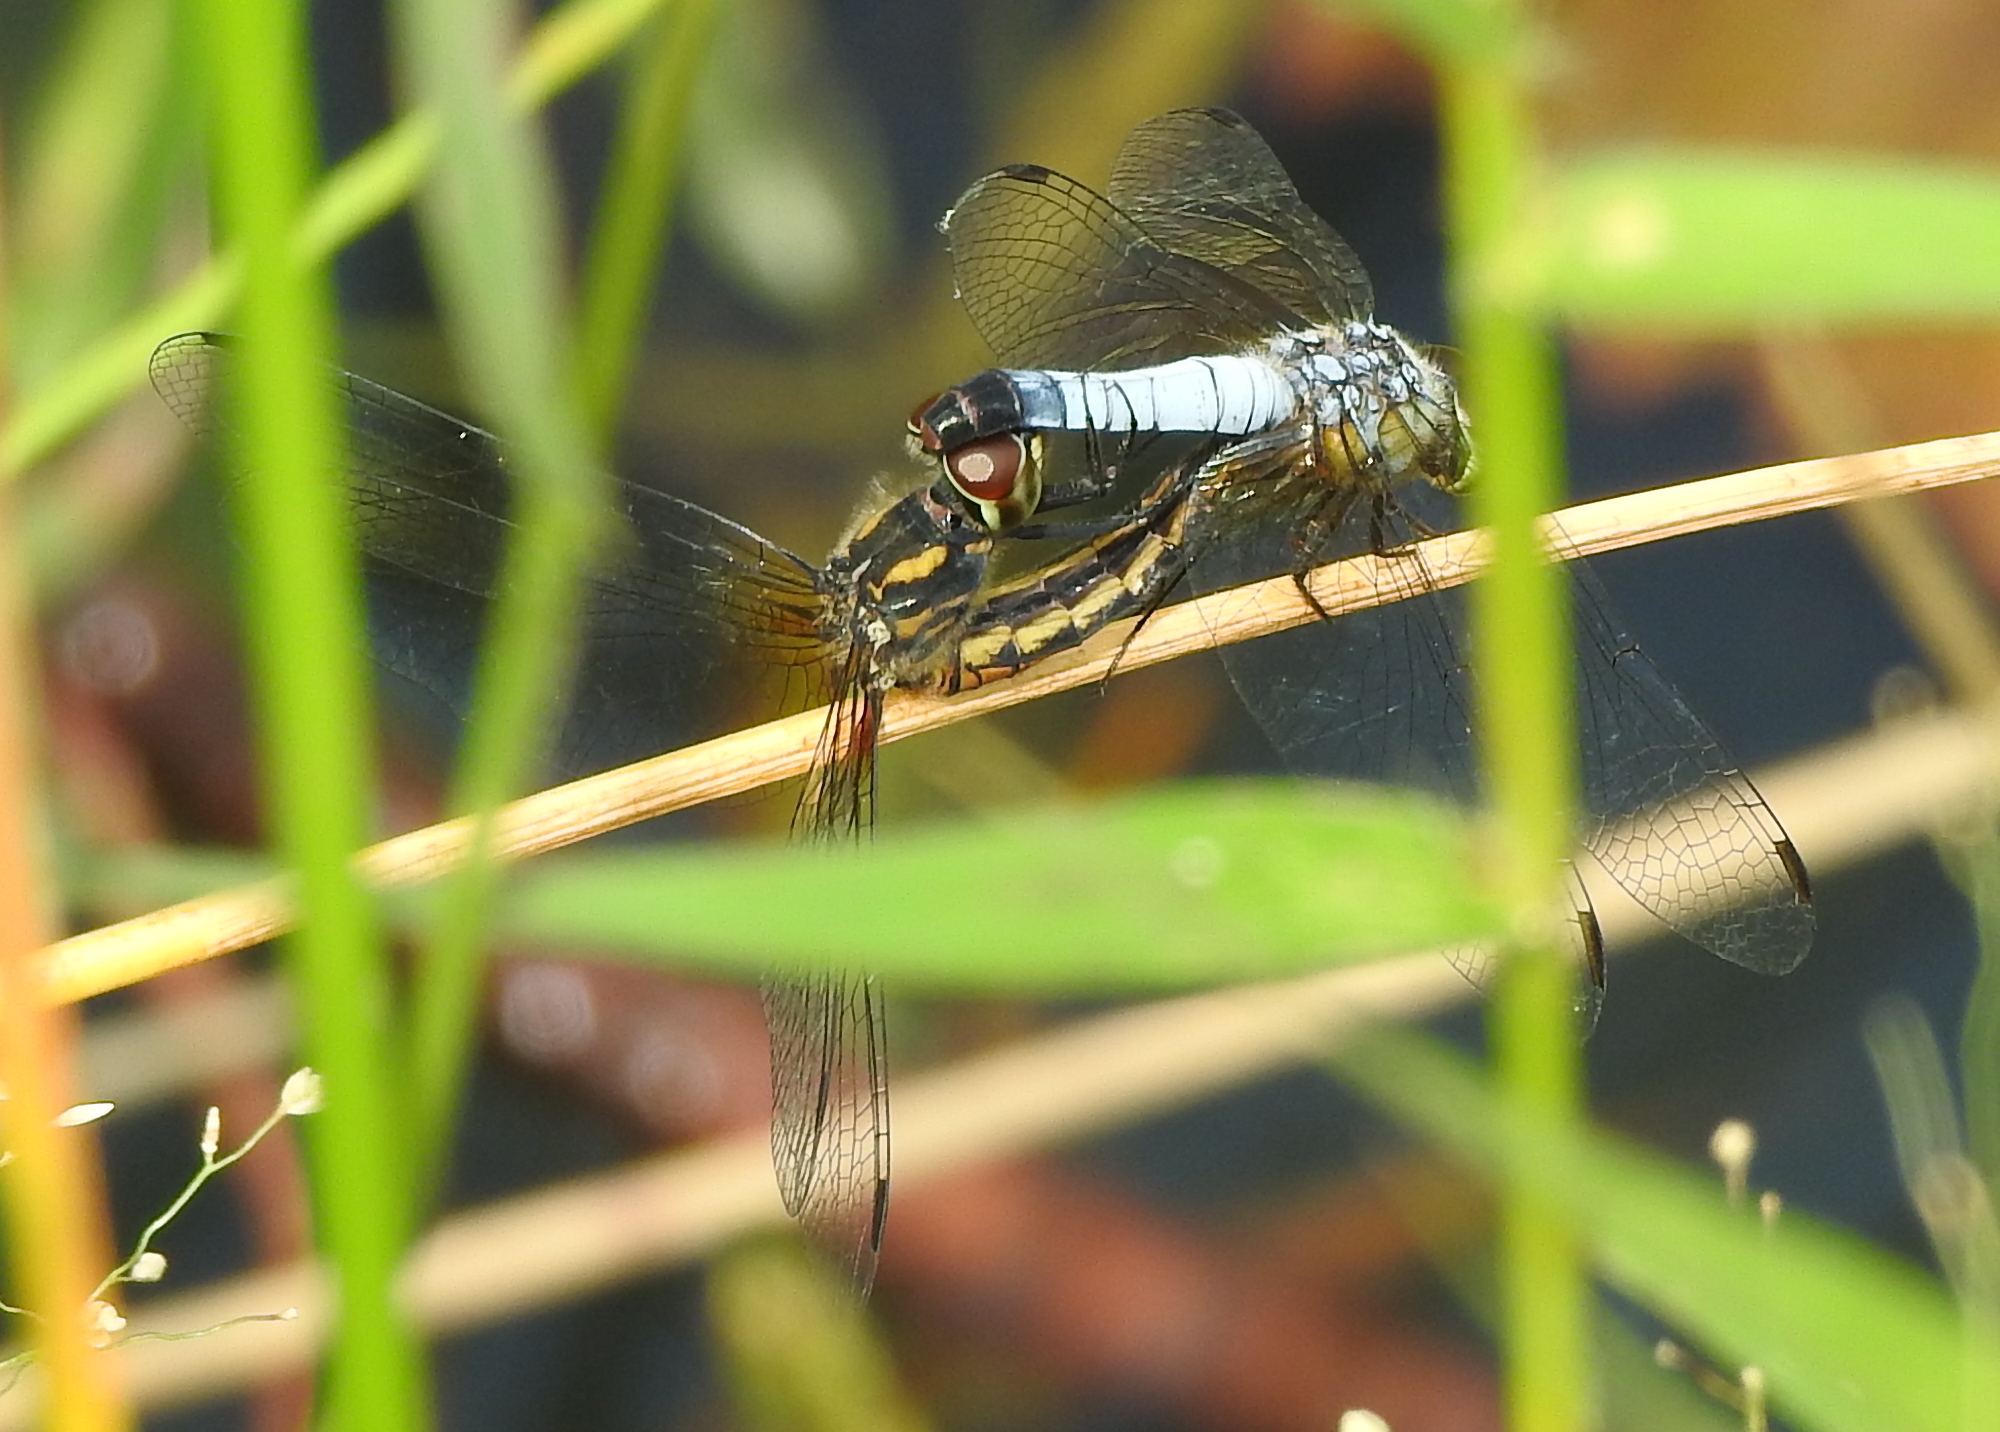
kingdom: Animalia
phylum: Arthropoda
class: Insecta
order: Odonata
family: Libellulidae
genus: Aethriamanta
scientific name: Aethriamanta gracilis
